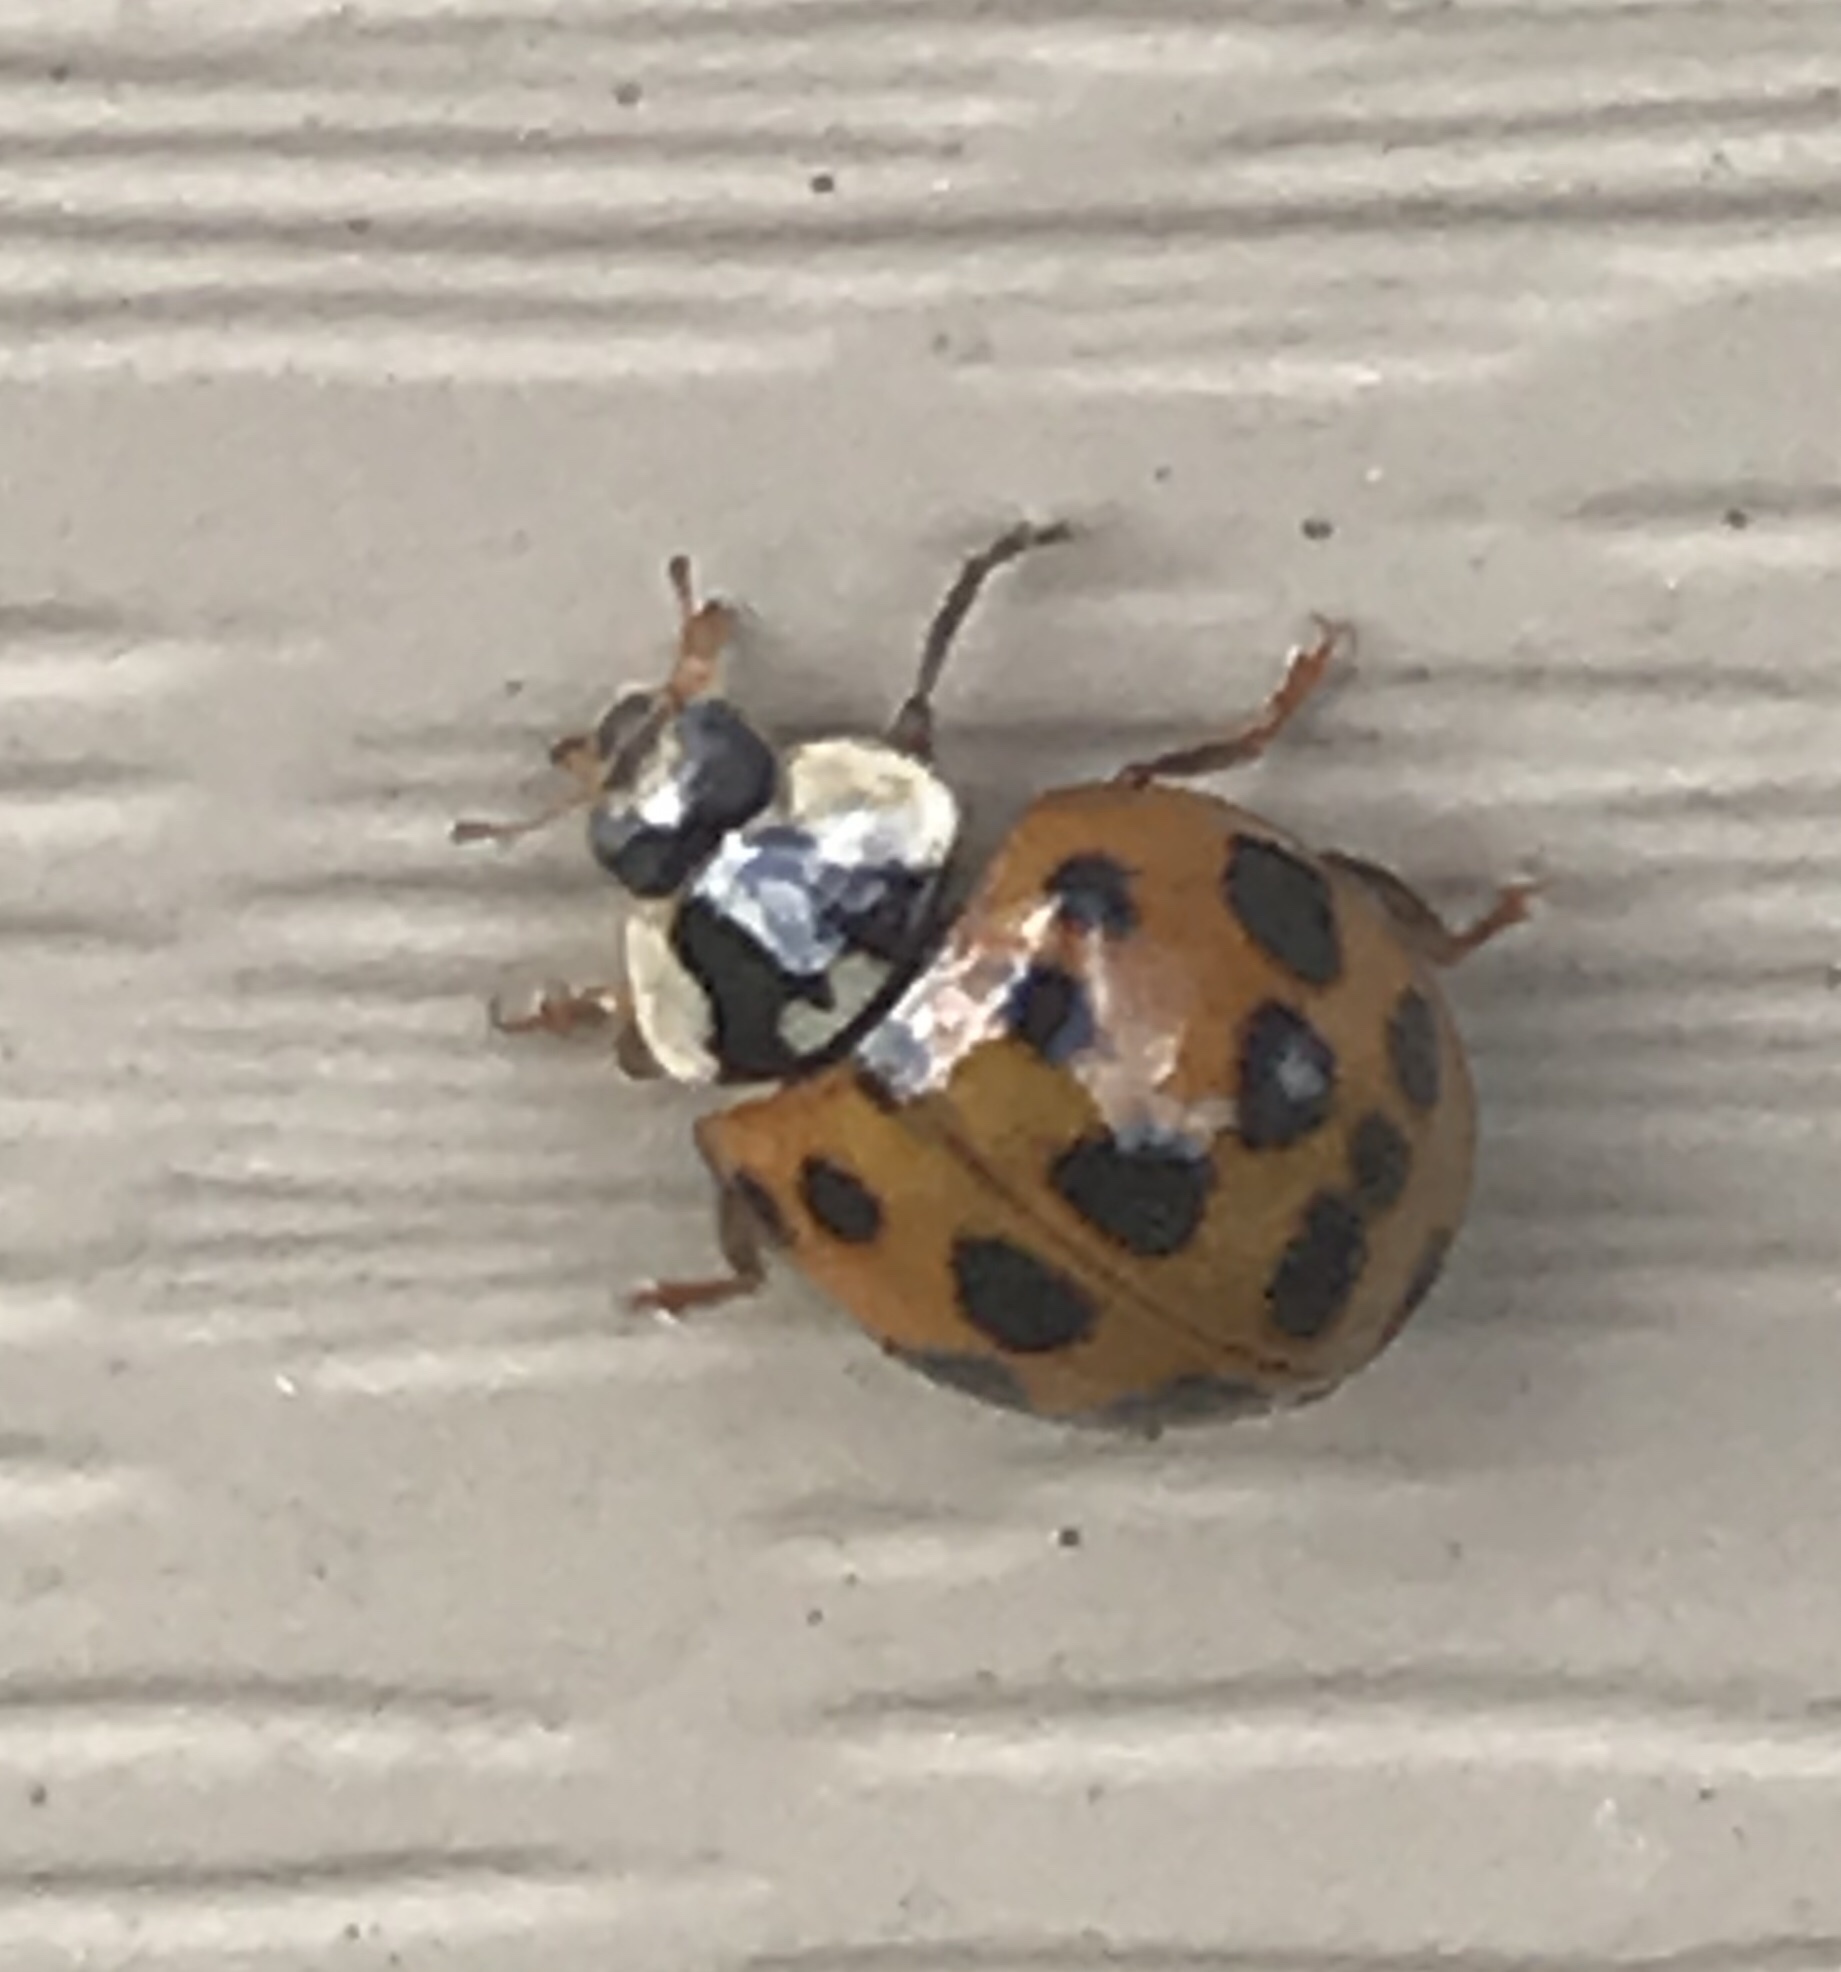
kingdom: Animalia
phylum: Arthropoda
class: Insecta
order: Coleoptera
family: Coccinellidae
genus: Harmonia
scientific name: Harmonia axyridis
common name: Harlequin ladybird
